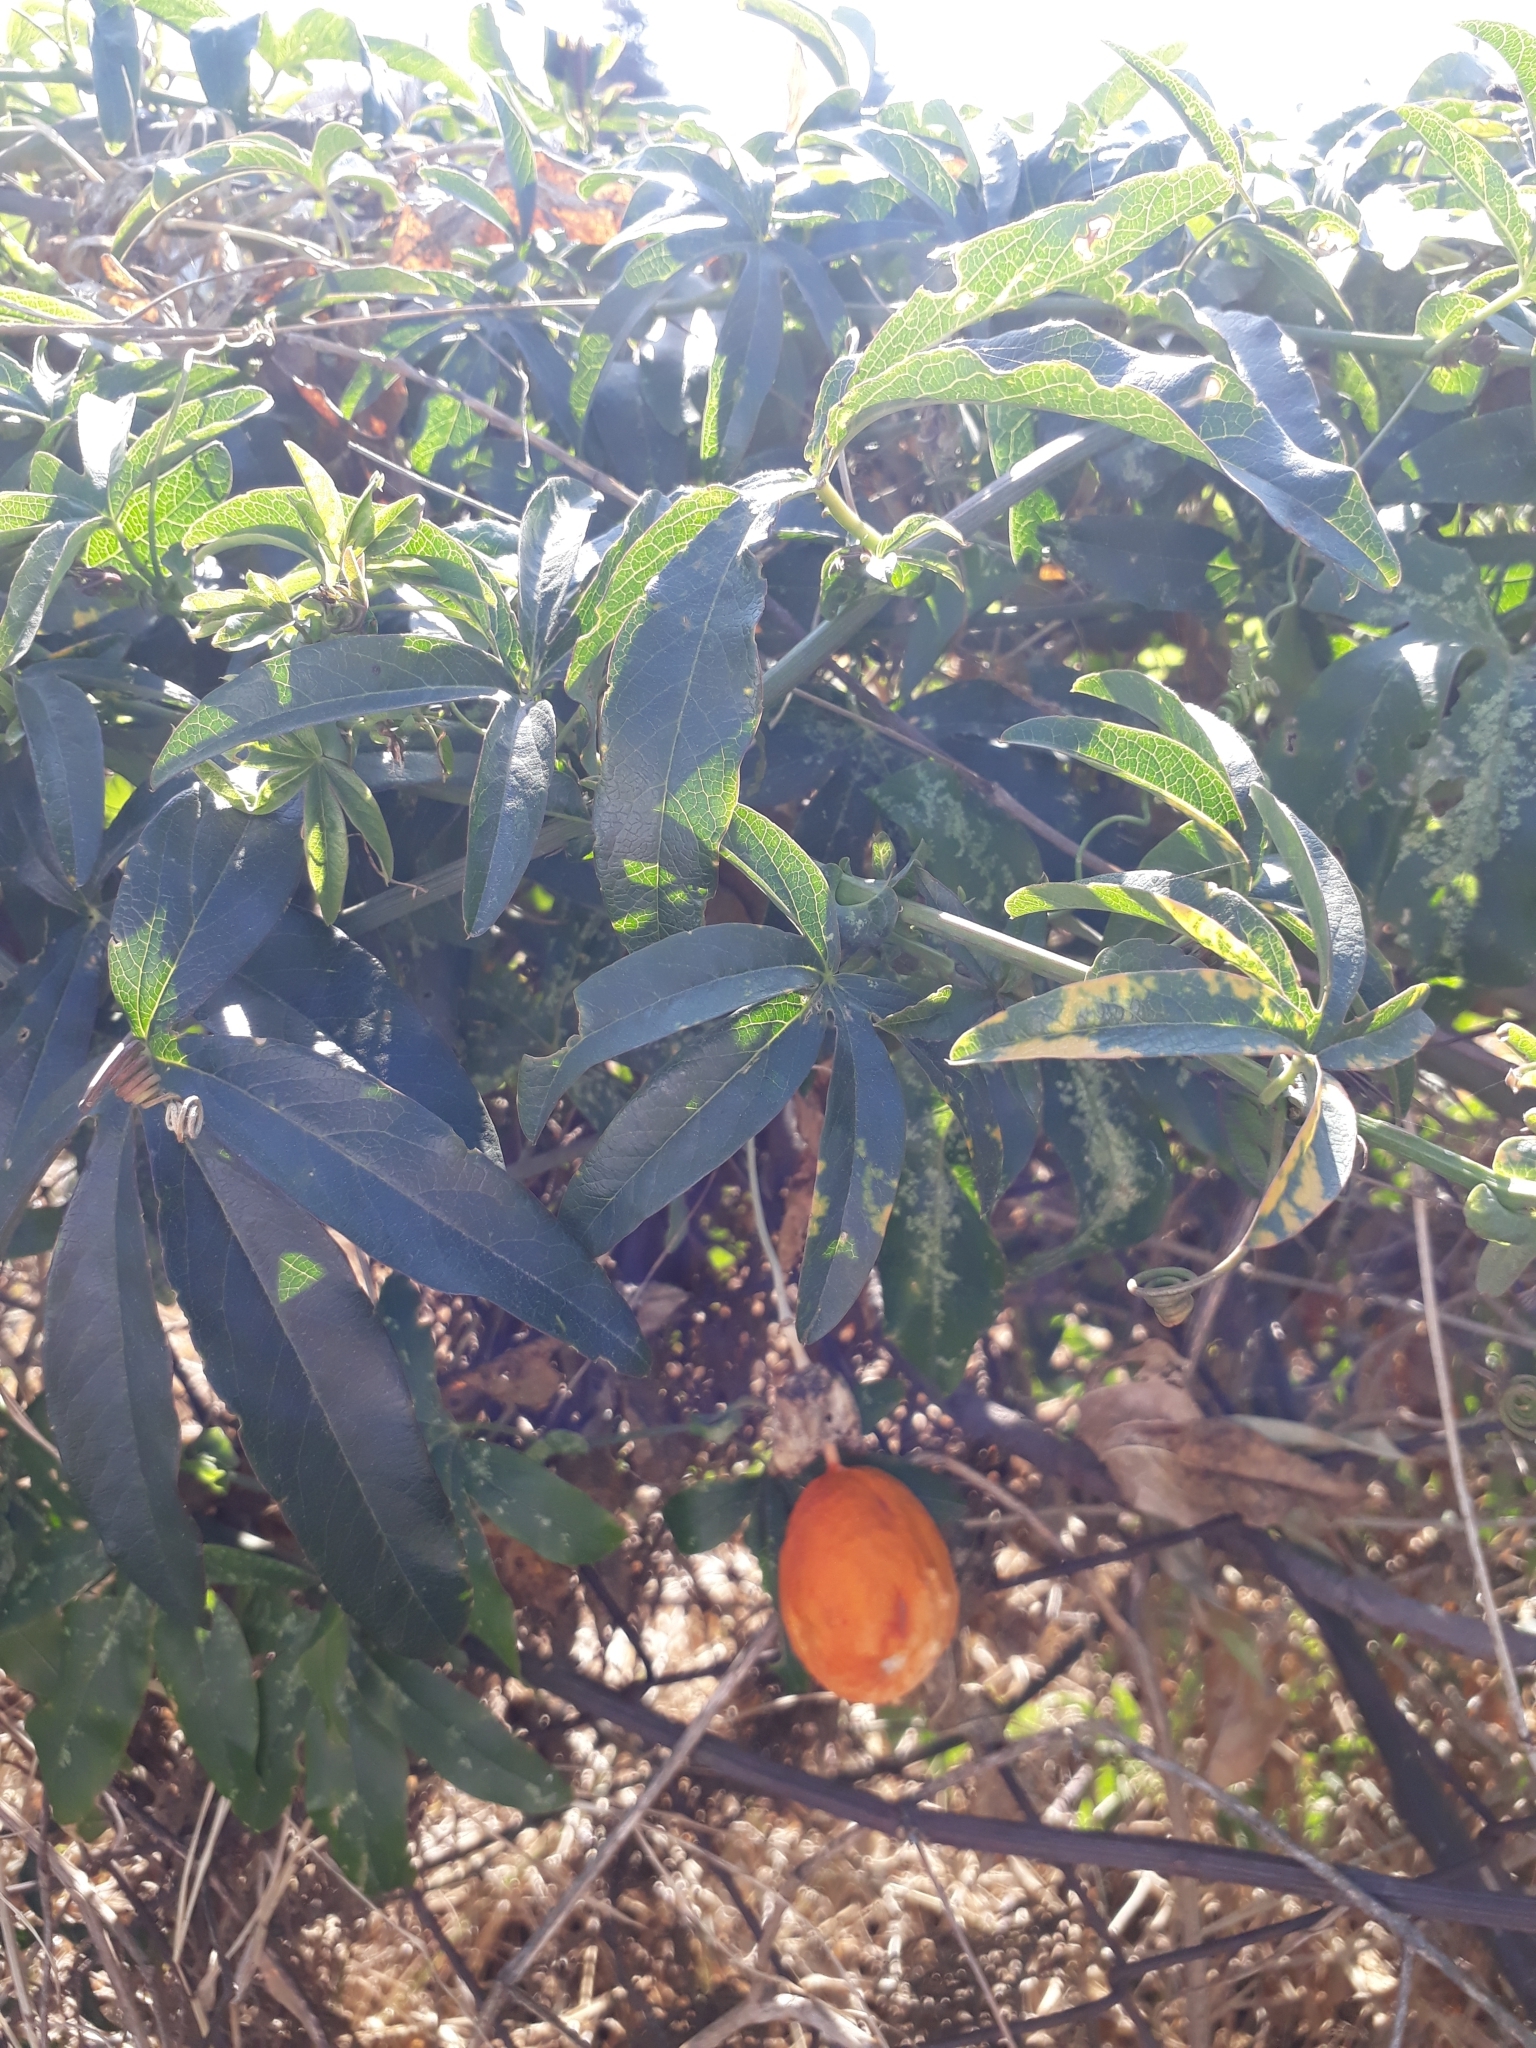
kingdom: Plantae
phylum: Tracheophyta
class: Magnoliopsida
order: Malpighiales
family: Passifloraceae
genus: Passiflora
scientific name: Passiflora caerulea
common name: Blue passionflower
